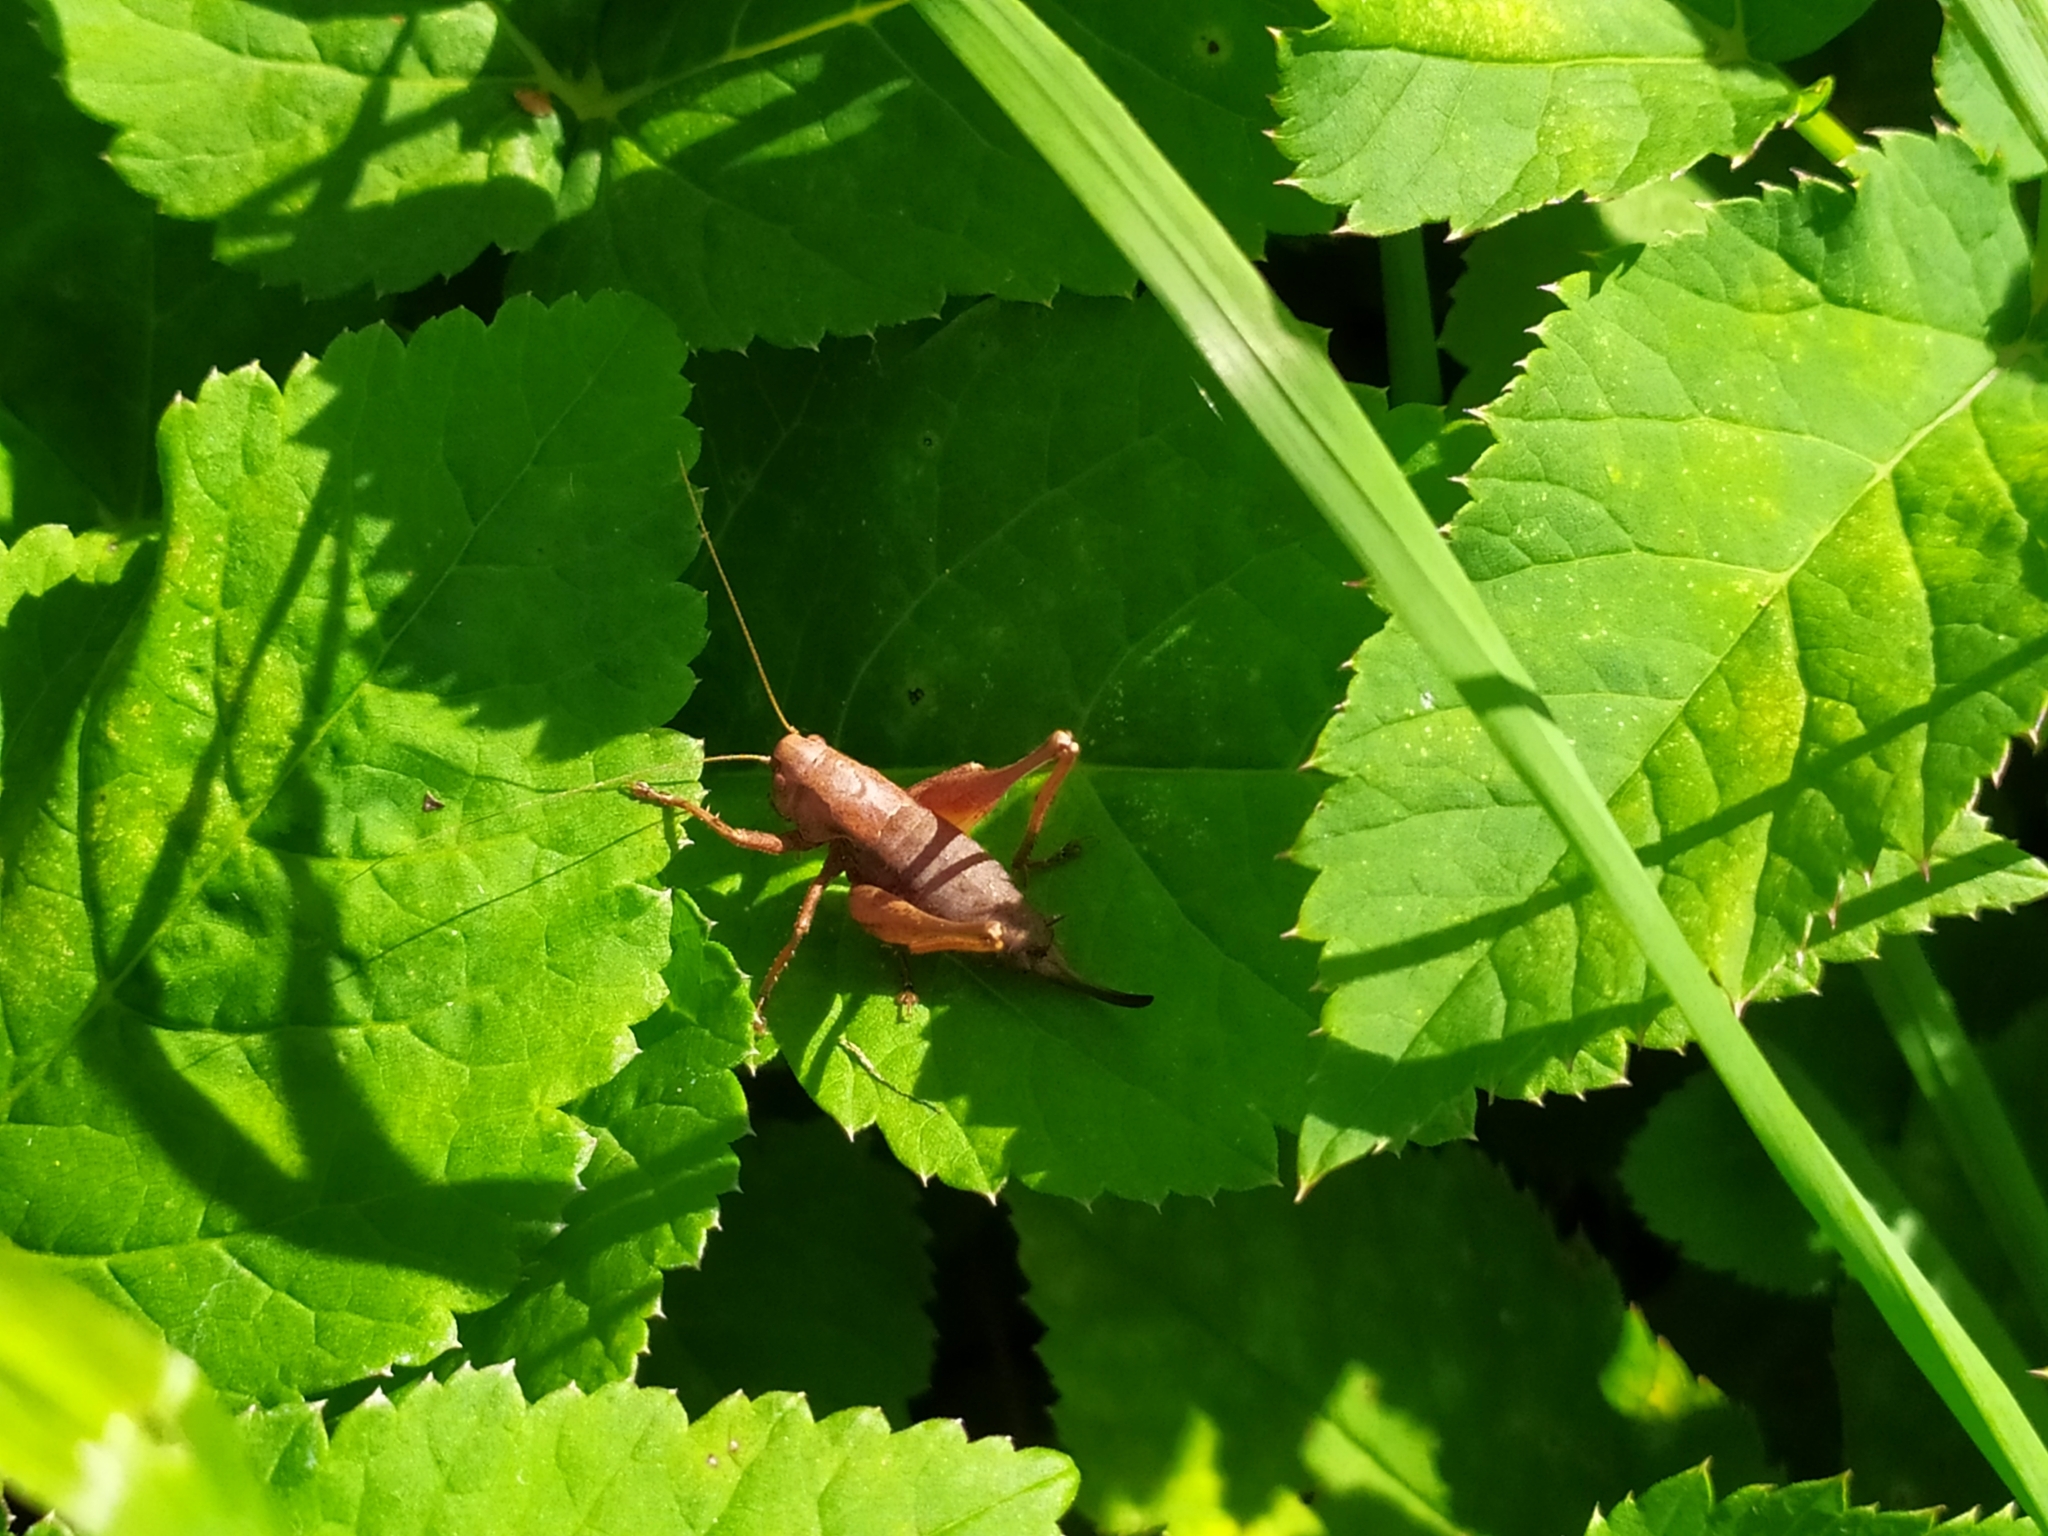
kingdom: Animalia
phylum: Arthropoda
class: Insecta
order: Orthoptera
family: Tettigoniidae
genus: Pholidoptera
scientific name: Pholidoptera griseoaptera
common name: Dark bush-cricket
